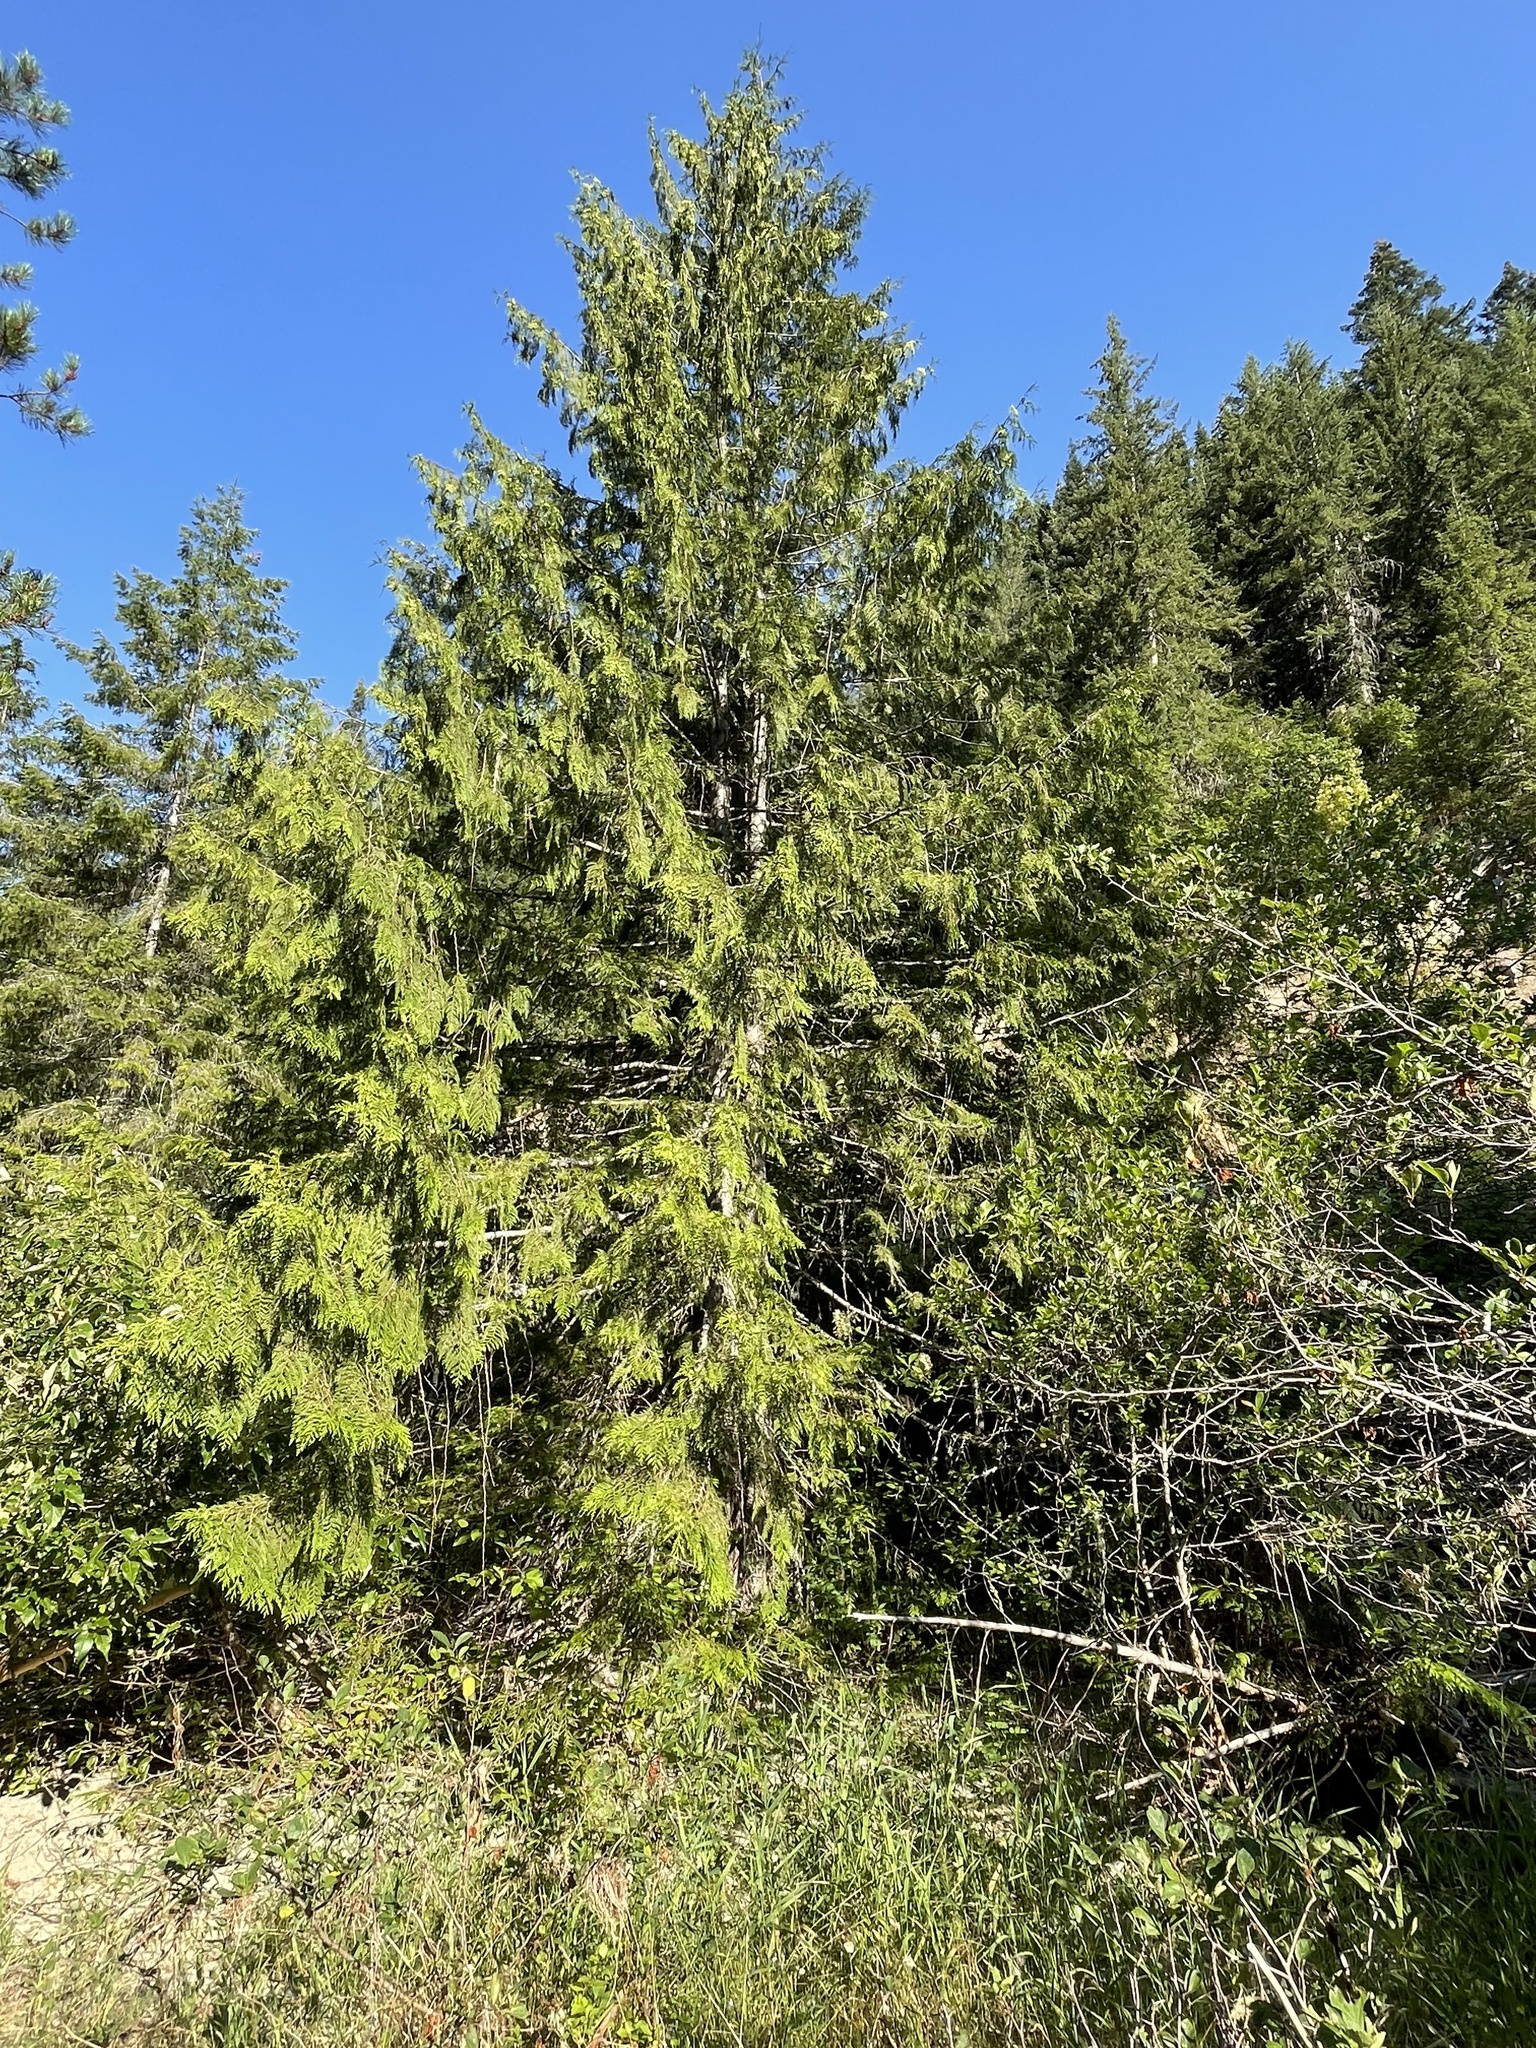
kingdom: Plantae
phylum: Tracheophyta
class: Pinopsida
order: Pinales
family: Cupressaceae
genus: Thuja
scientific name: Thuja plicata
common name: Western red-cedar
